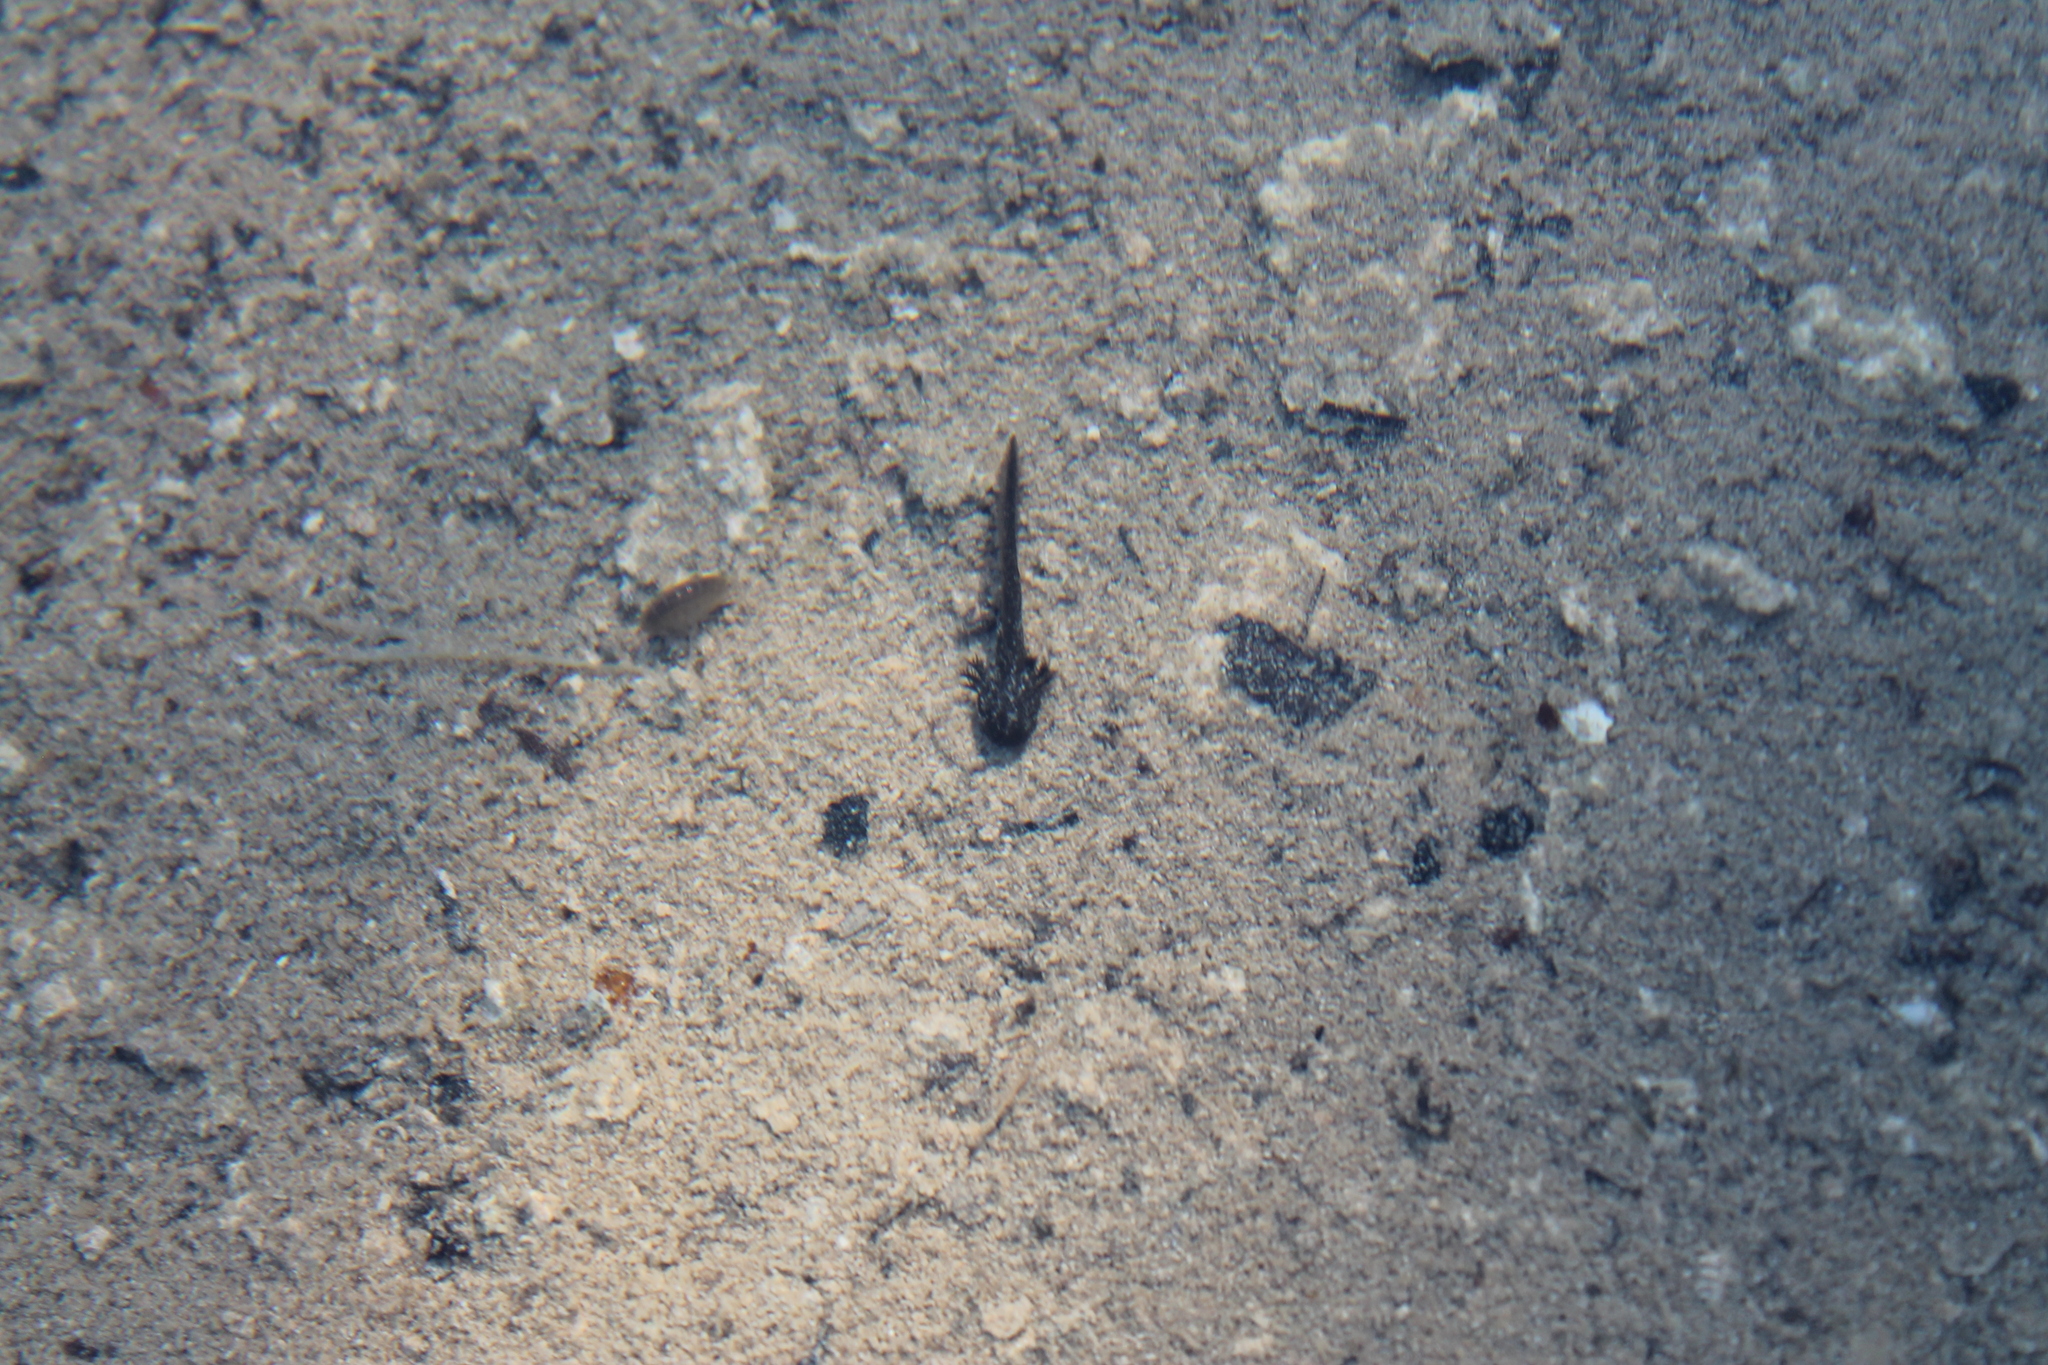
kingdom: Animalia
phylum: Chordata
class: Amphibia
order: Caudata
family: Ambystomatidae
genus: Ambystoma
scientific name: Ambystoma barbouri
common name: Streamside salamander
